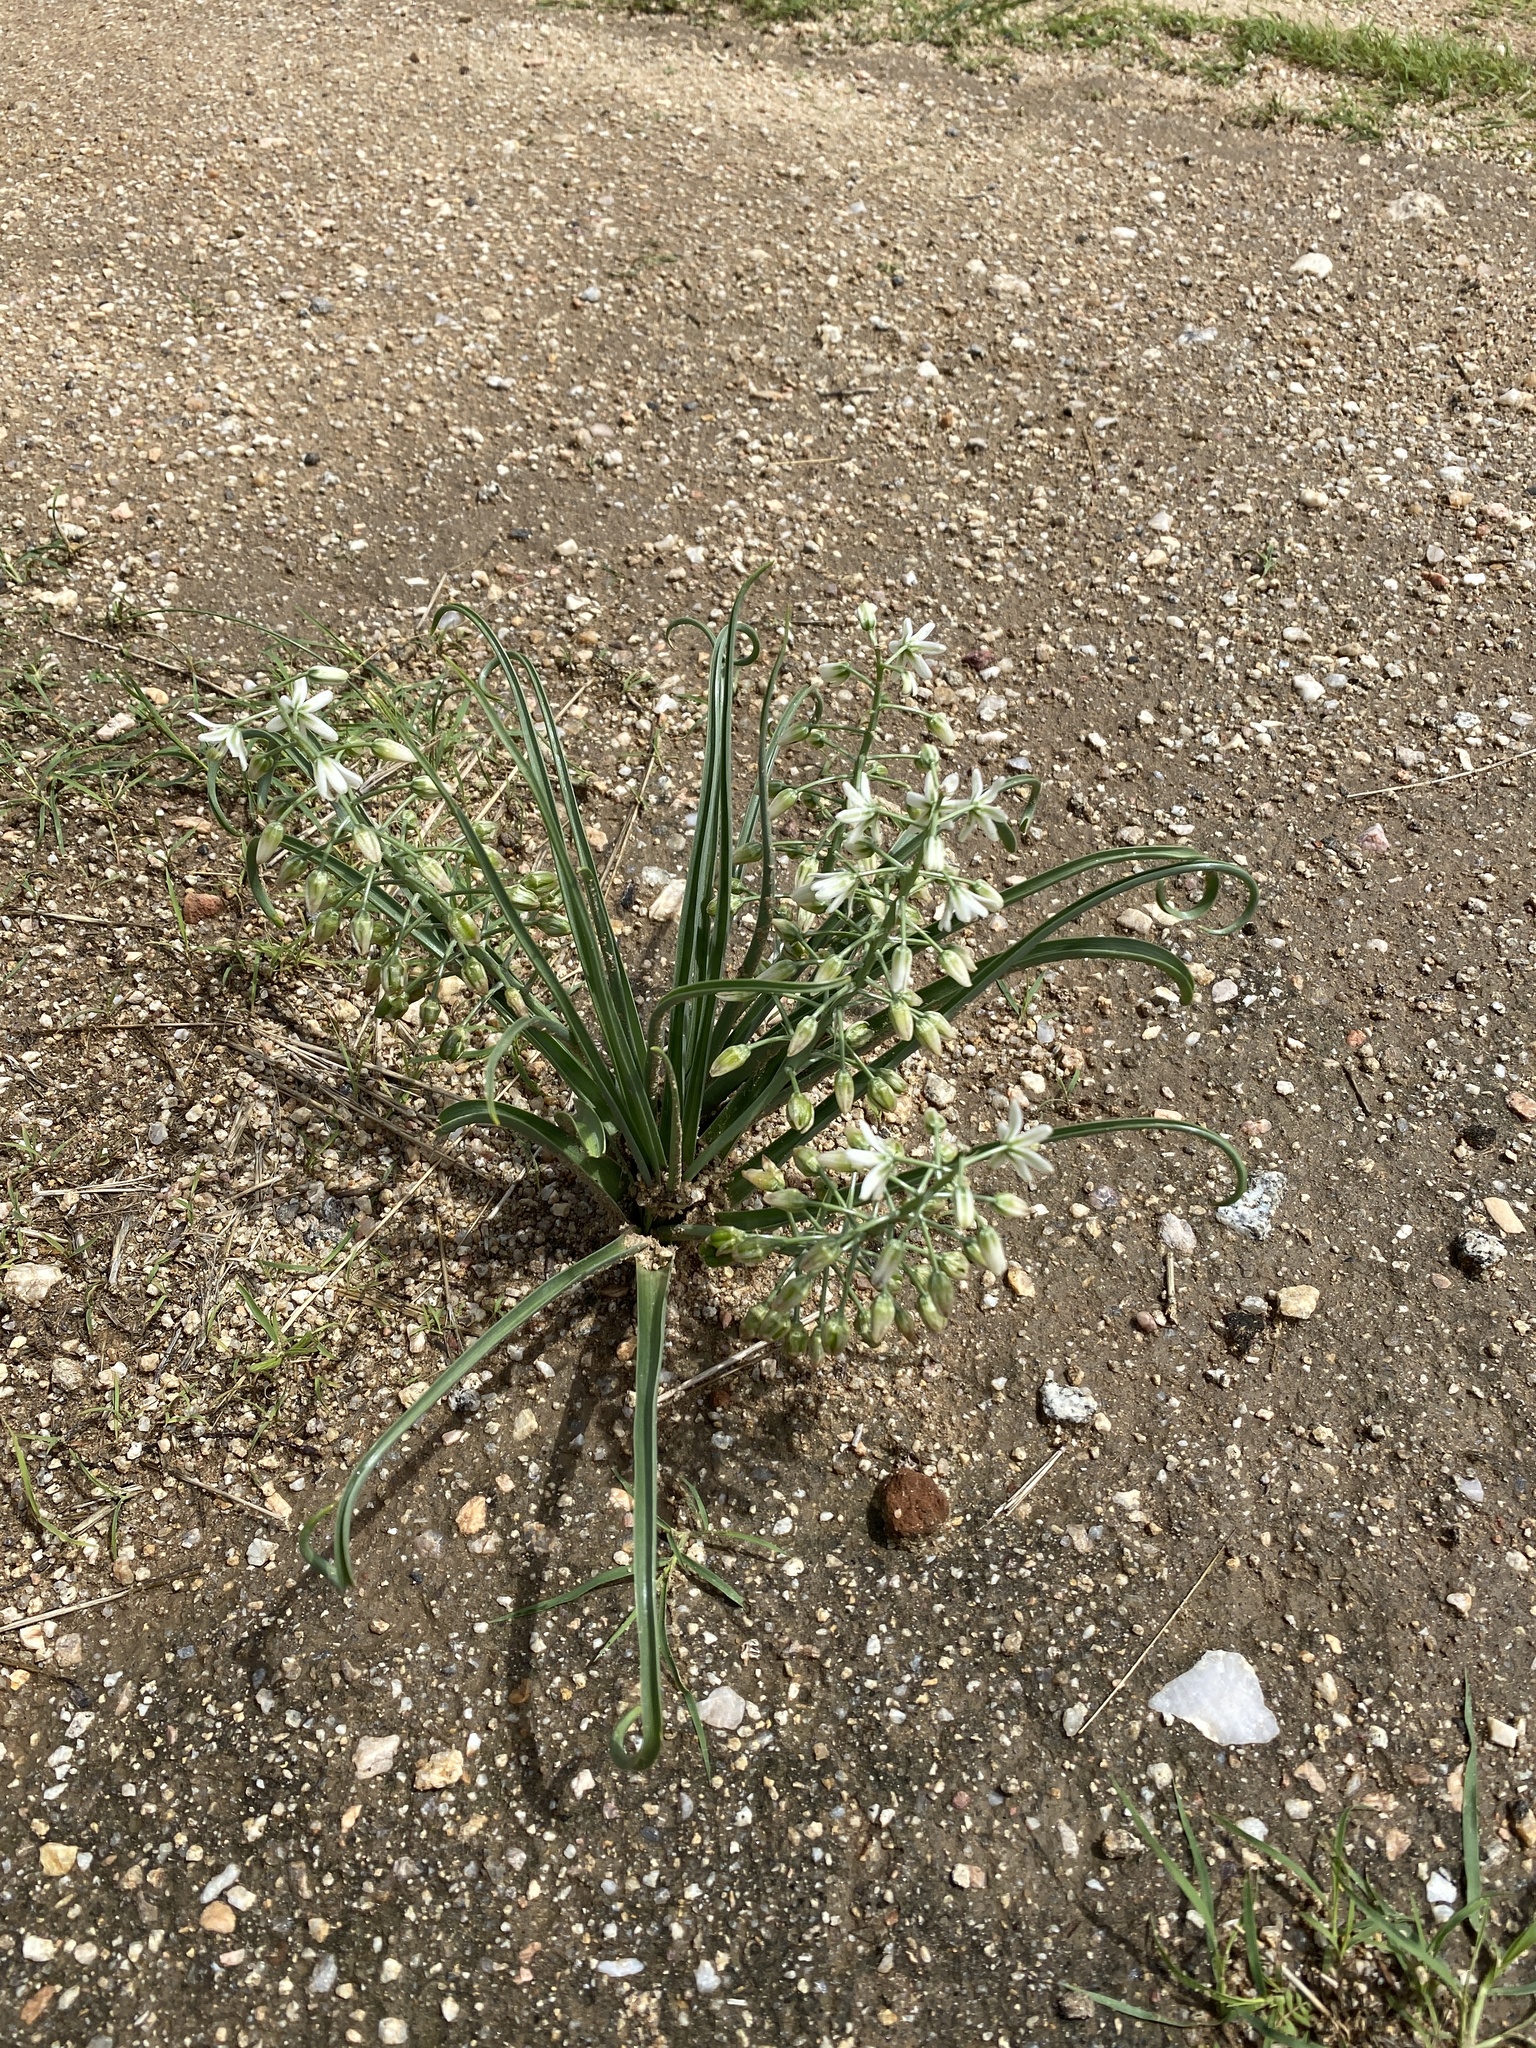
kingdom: Plantae
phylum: Tracheophyta
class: Liliopsida
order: Asparagales
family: Asparagaceae
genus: Albuca
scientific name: Albuca stapffii
